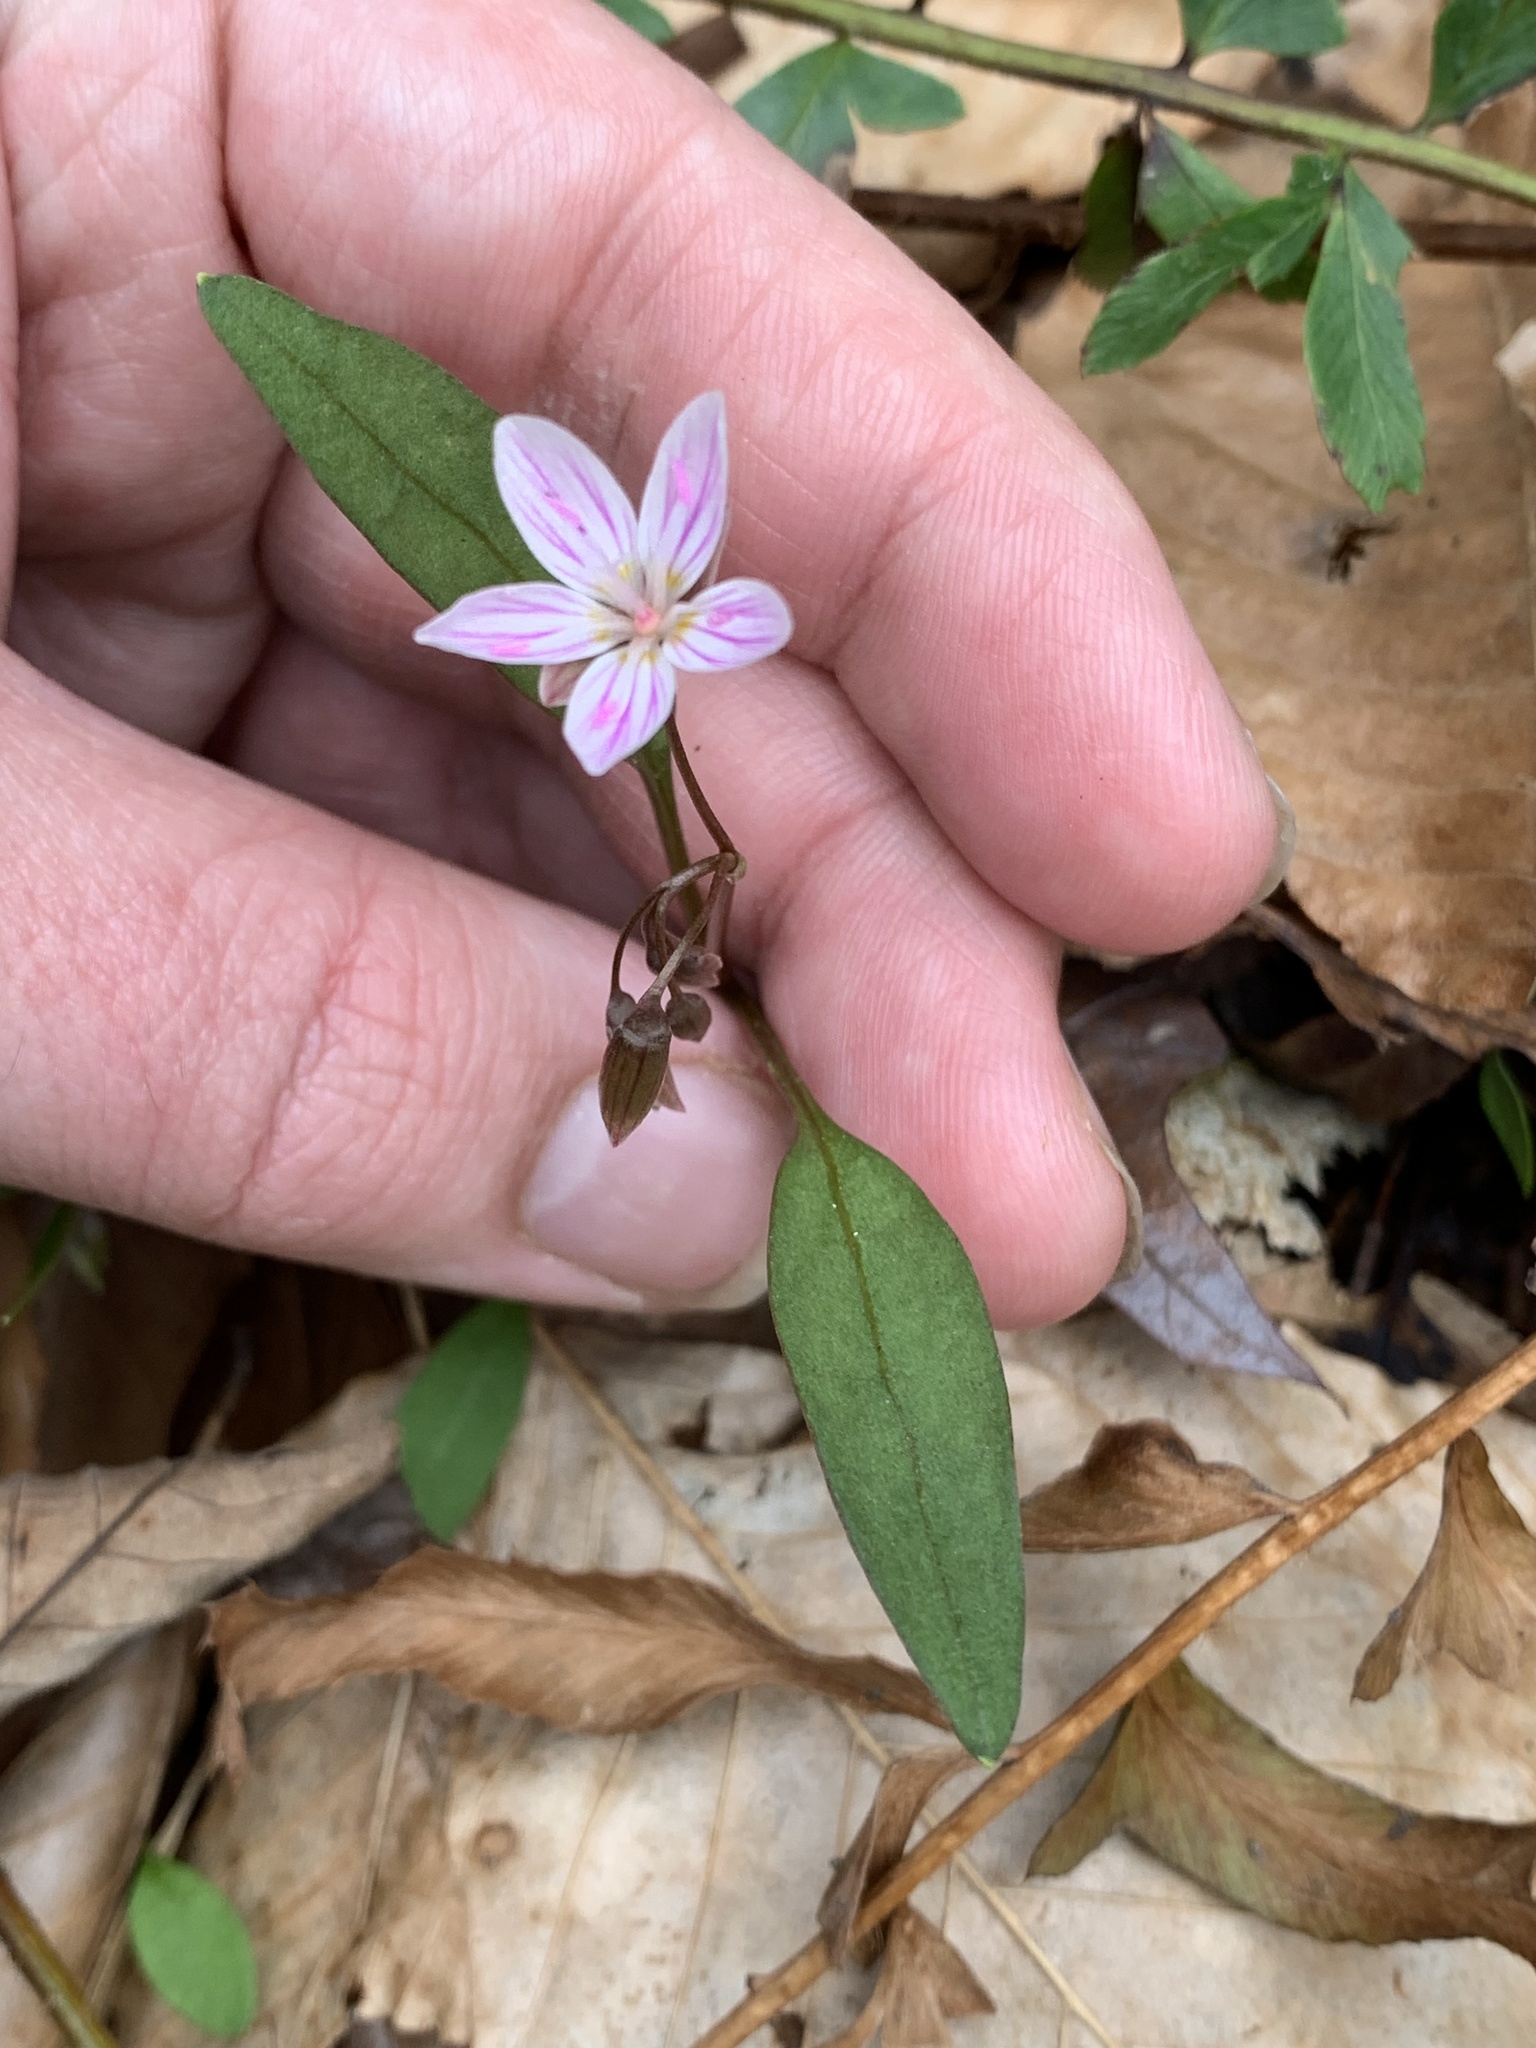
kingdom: Plantae
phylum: Tracheophyta
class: Magnoliopsida
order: Caryophyllales
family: Montiaceae
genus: Claytonia
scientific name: Claytonia caroliniana
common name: Carolina spring beauty
